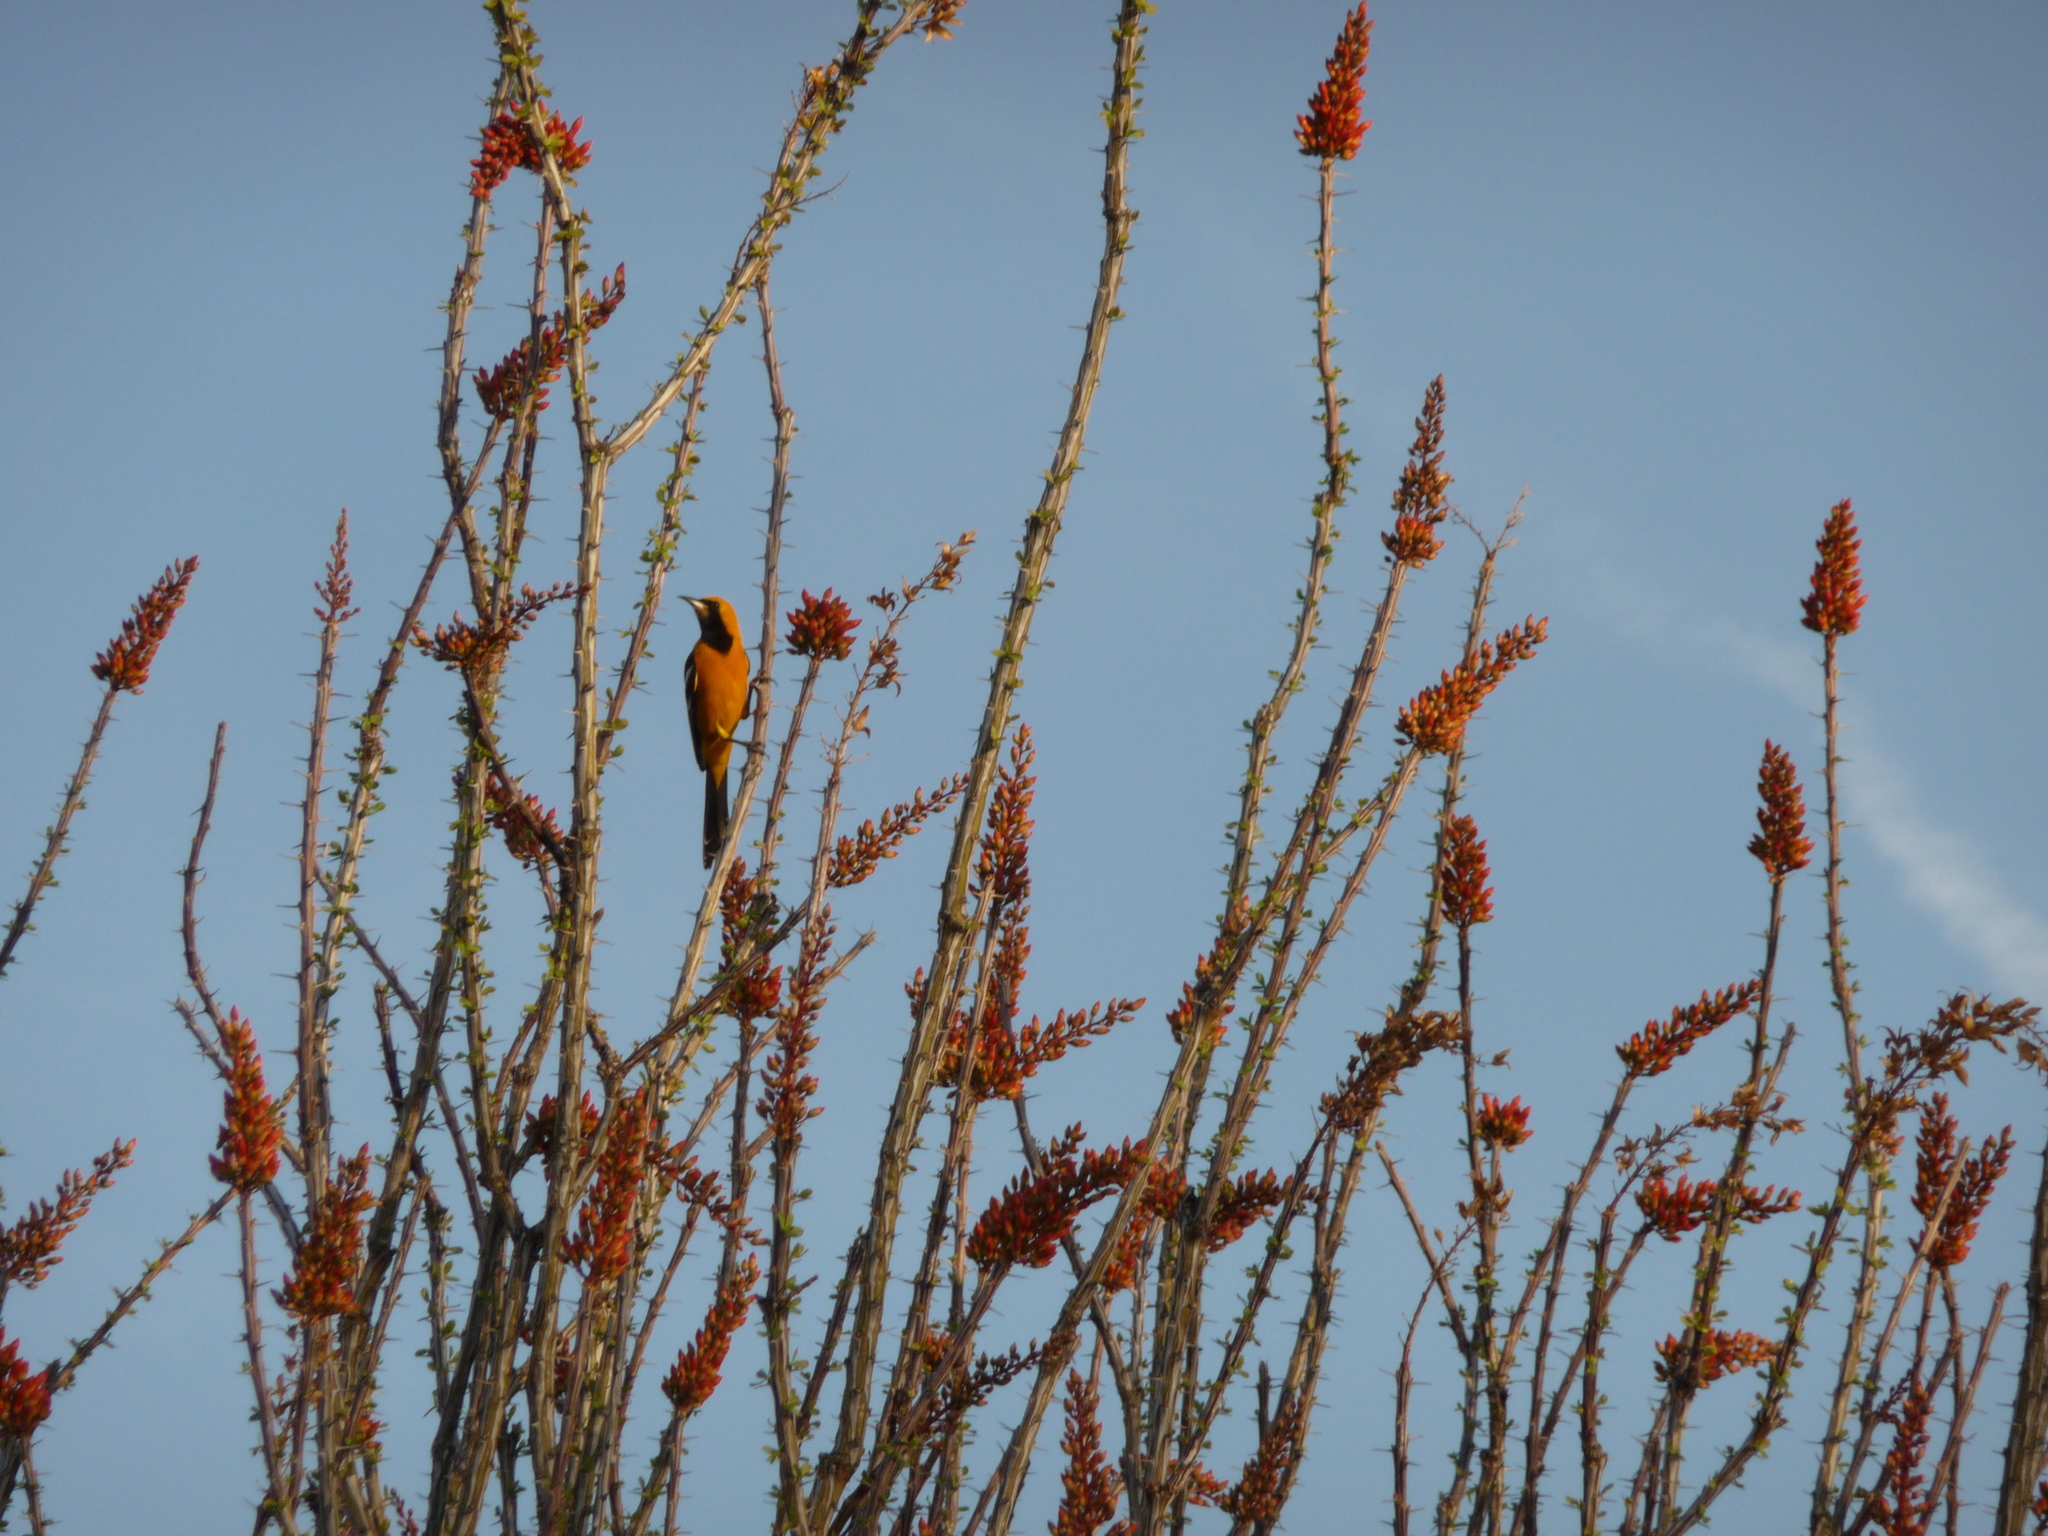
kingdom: Animalia
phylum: Chordata
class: Aves
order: Passeriformes
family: Icteridae
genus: Icterus
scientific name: Icterus cucullatus
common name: Hooded oriole
